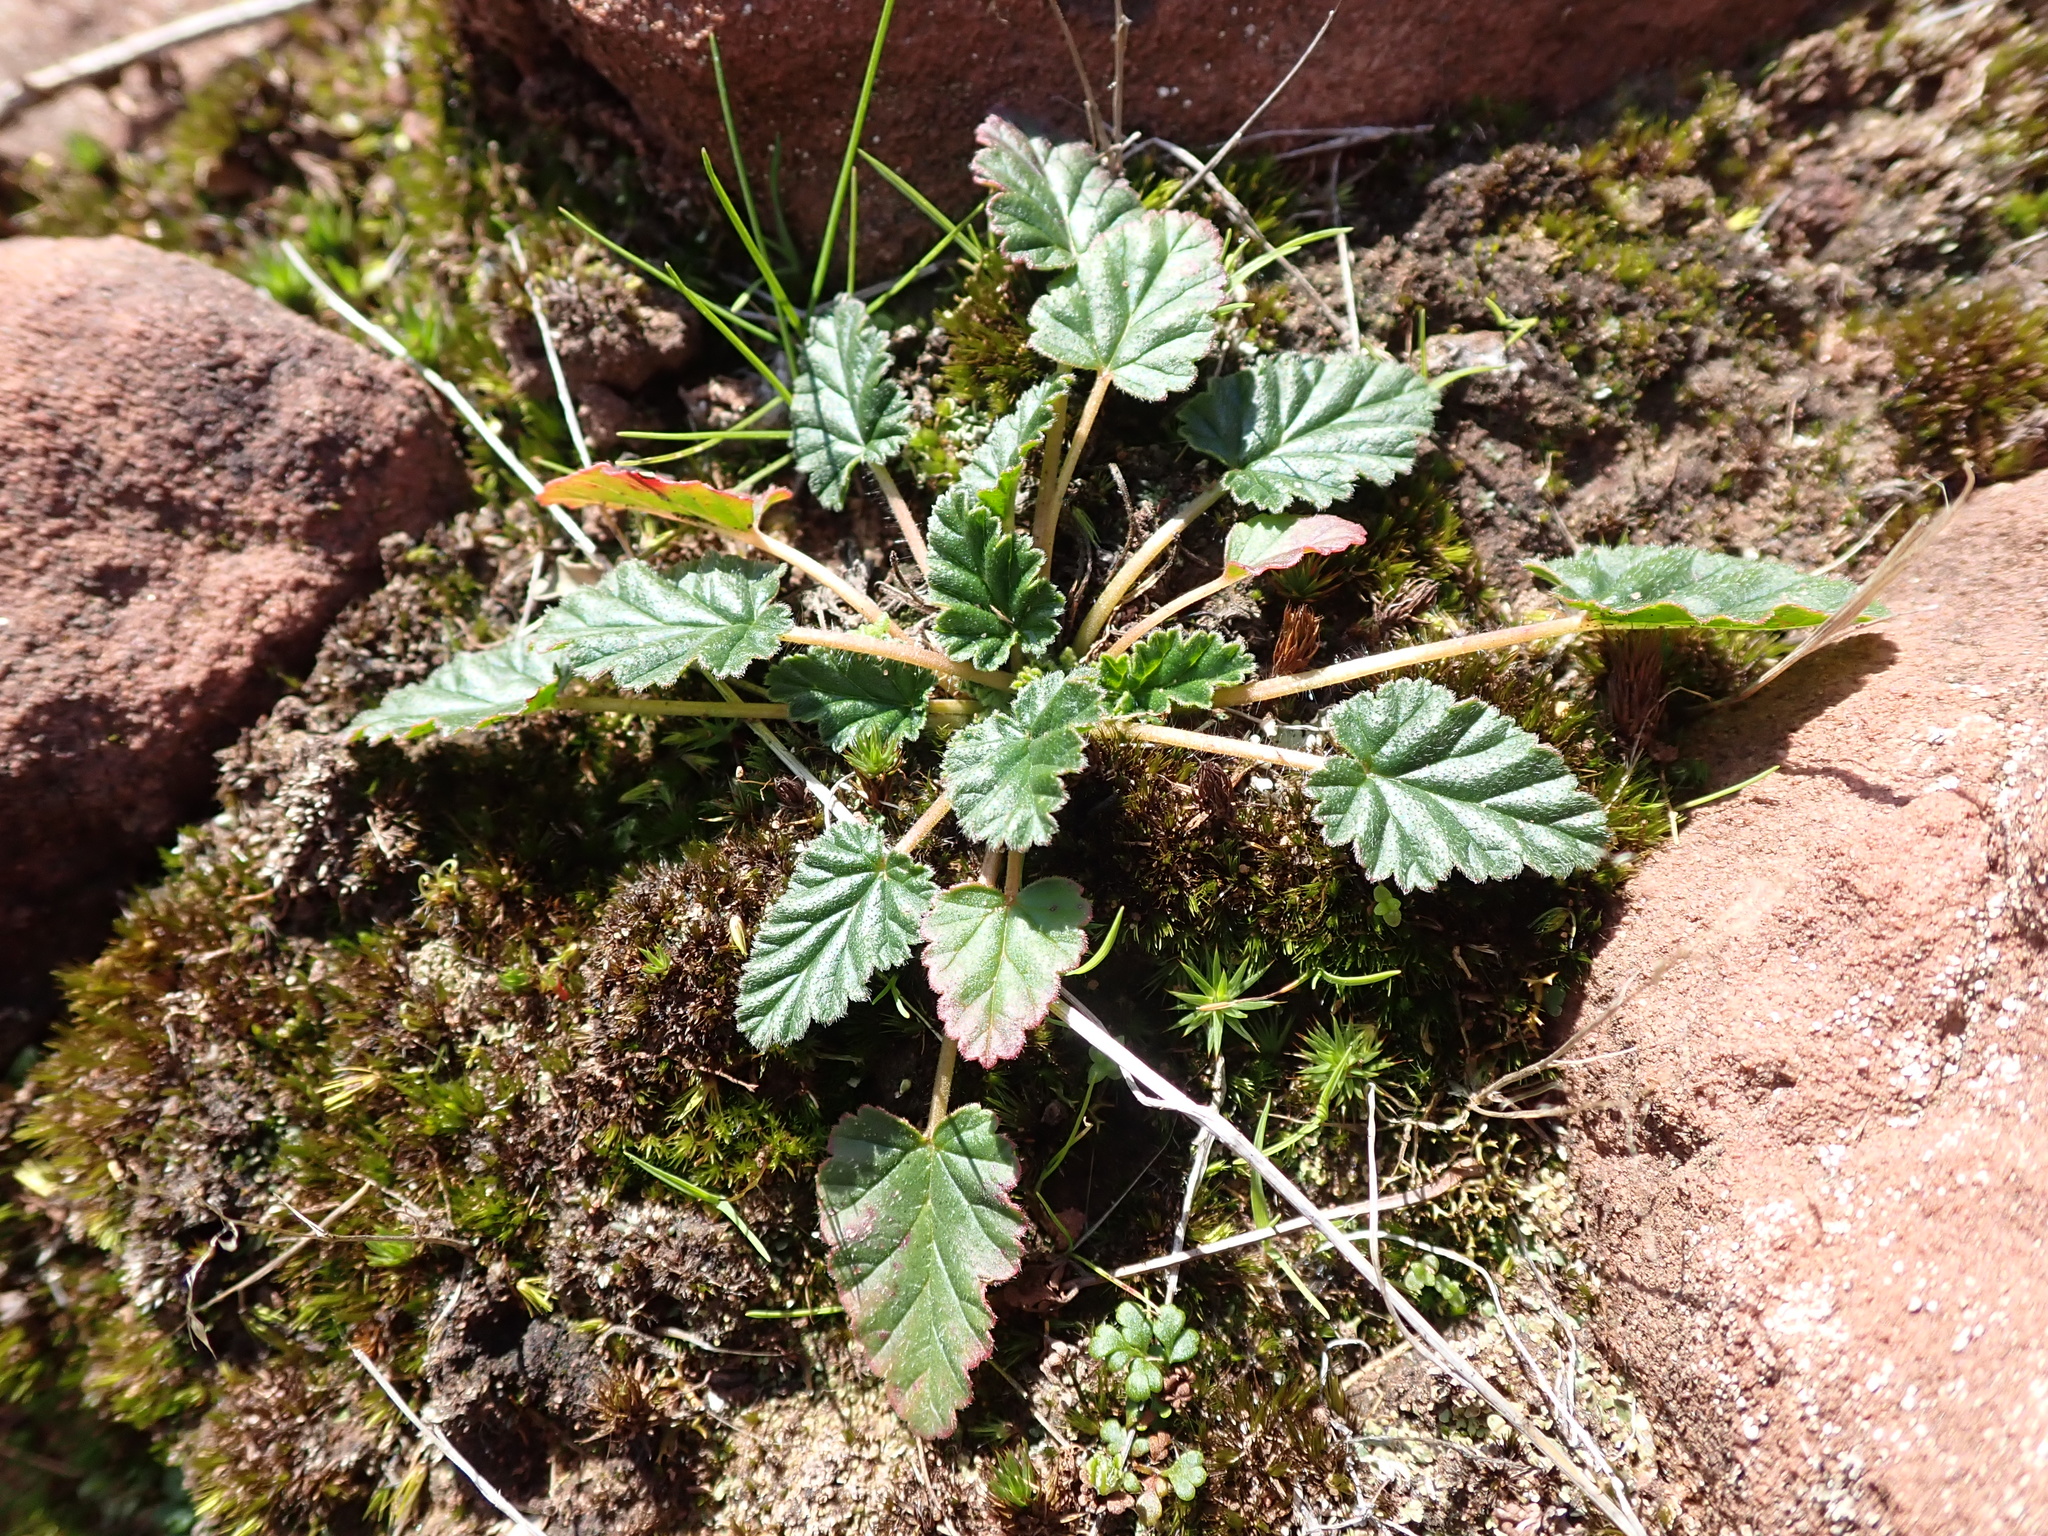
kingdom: Plantae
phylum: Tracheophyta
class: Magnoliopsida
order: Geraniales
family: Geraniaceae
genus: Pelargonium
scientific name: Pelargonium rodneyanum
